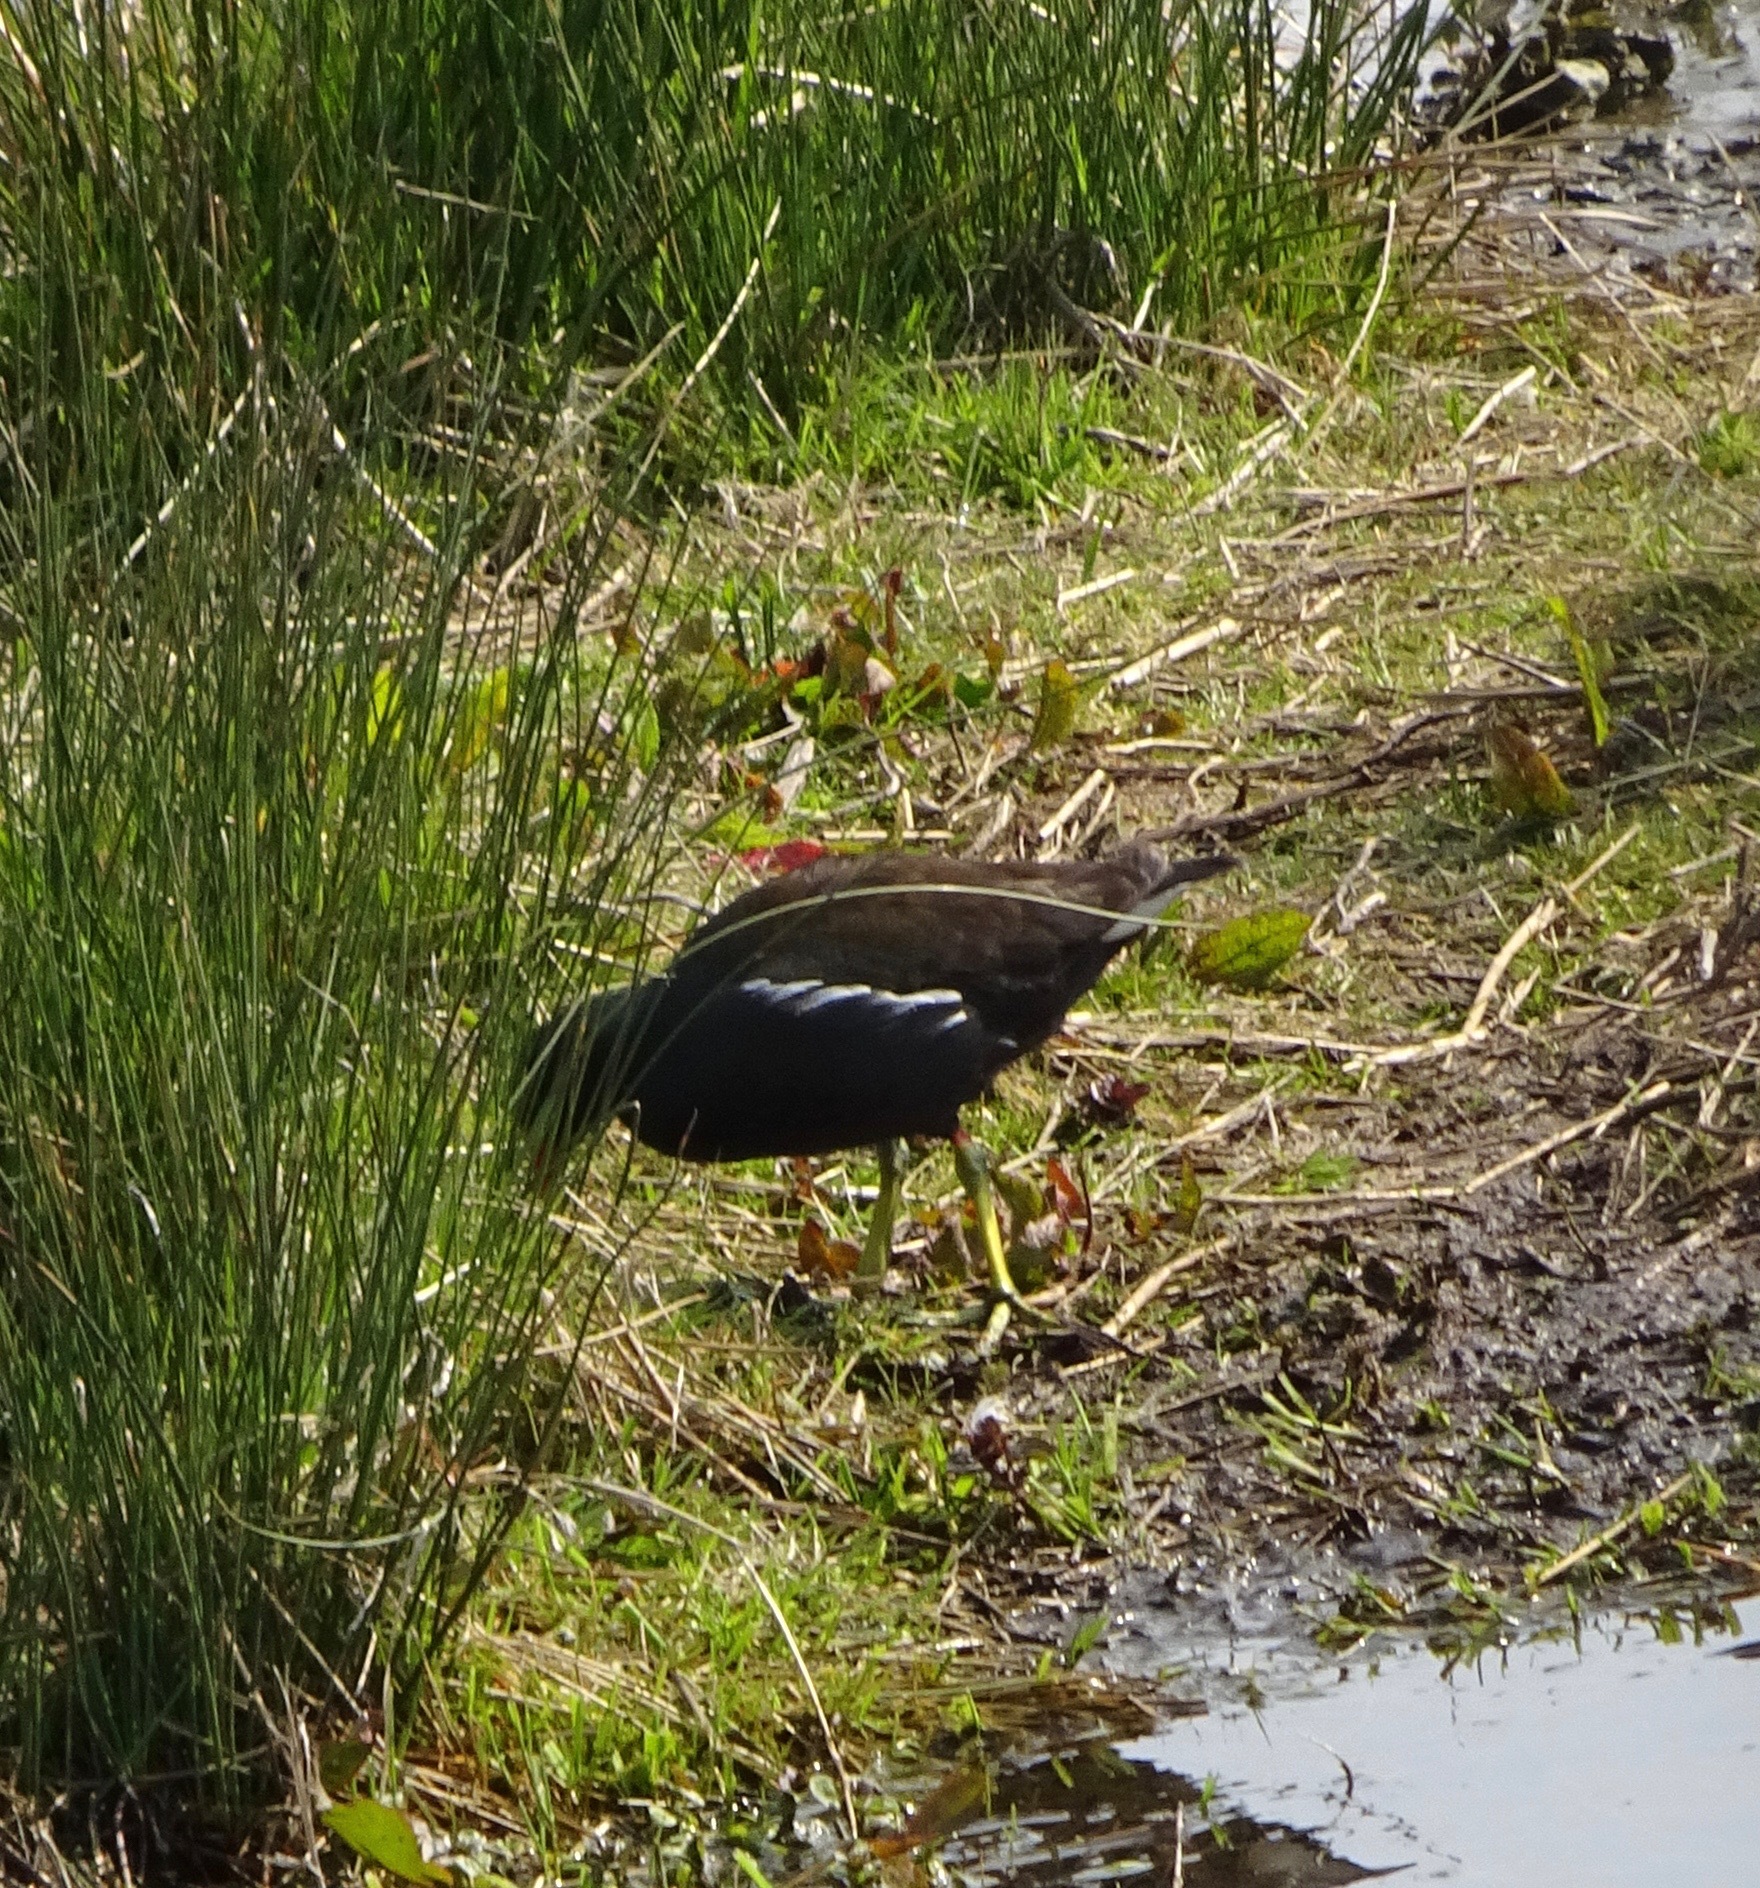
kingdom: Animalia
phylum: Chordata
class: Aves
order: Gruiformes
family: Rallidae
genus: Gallinula
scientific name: Gallinula chloropus
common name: Common moorhen
